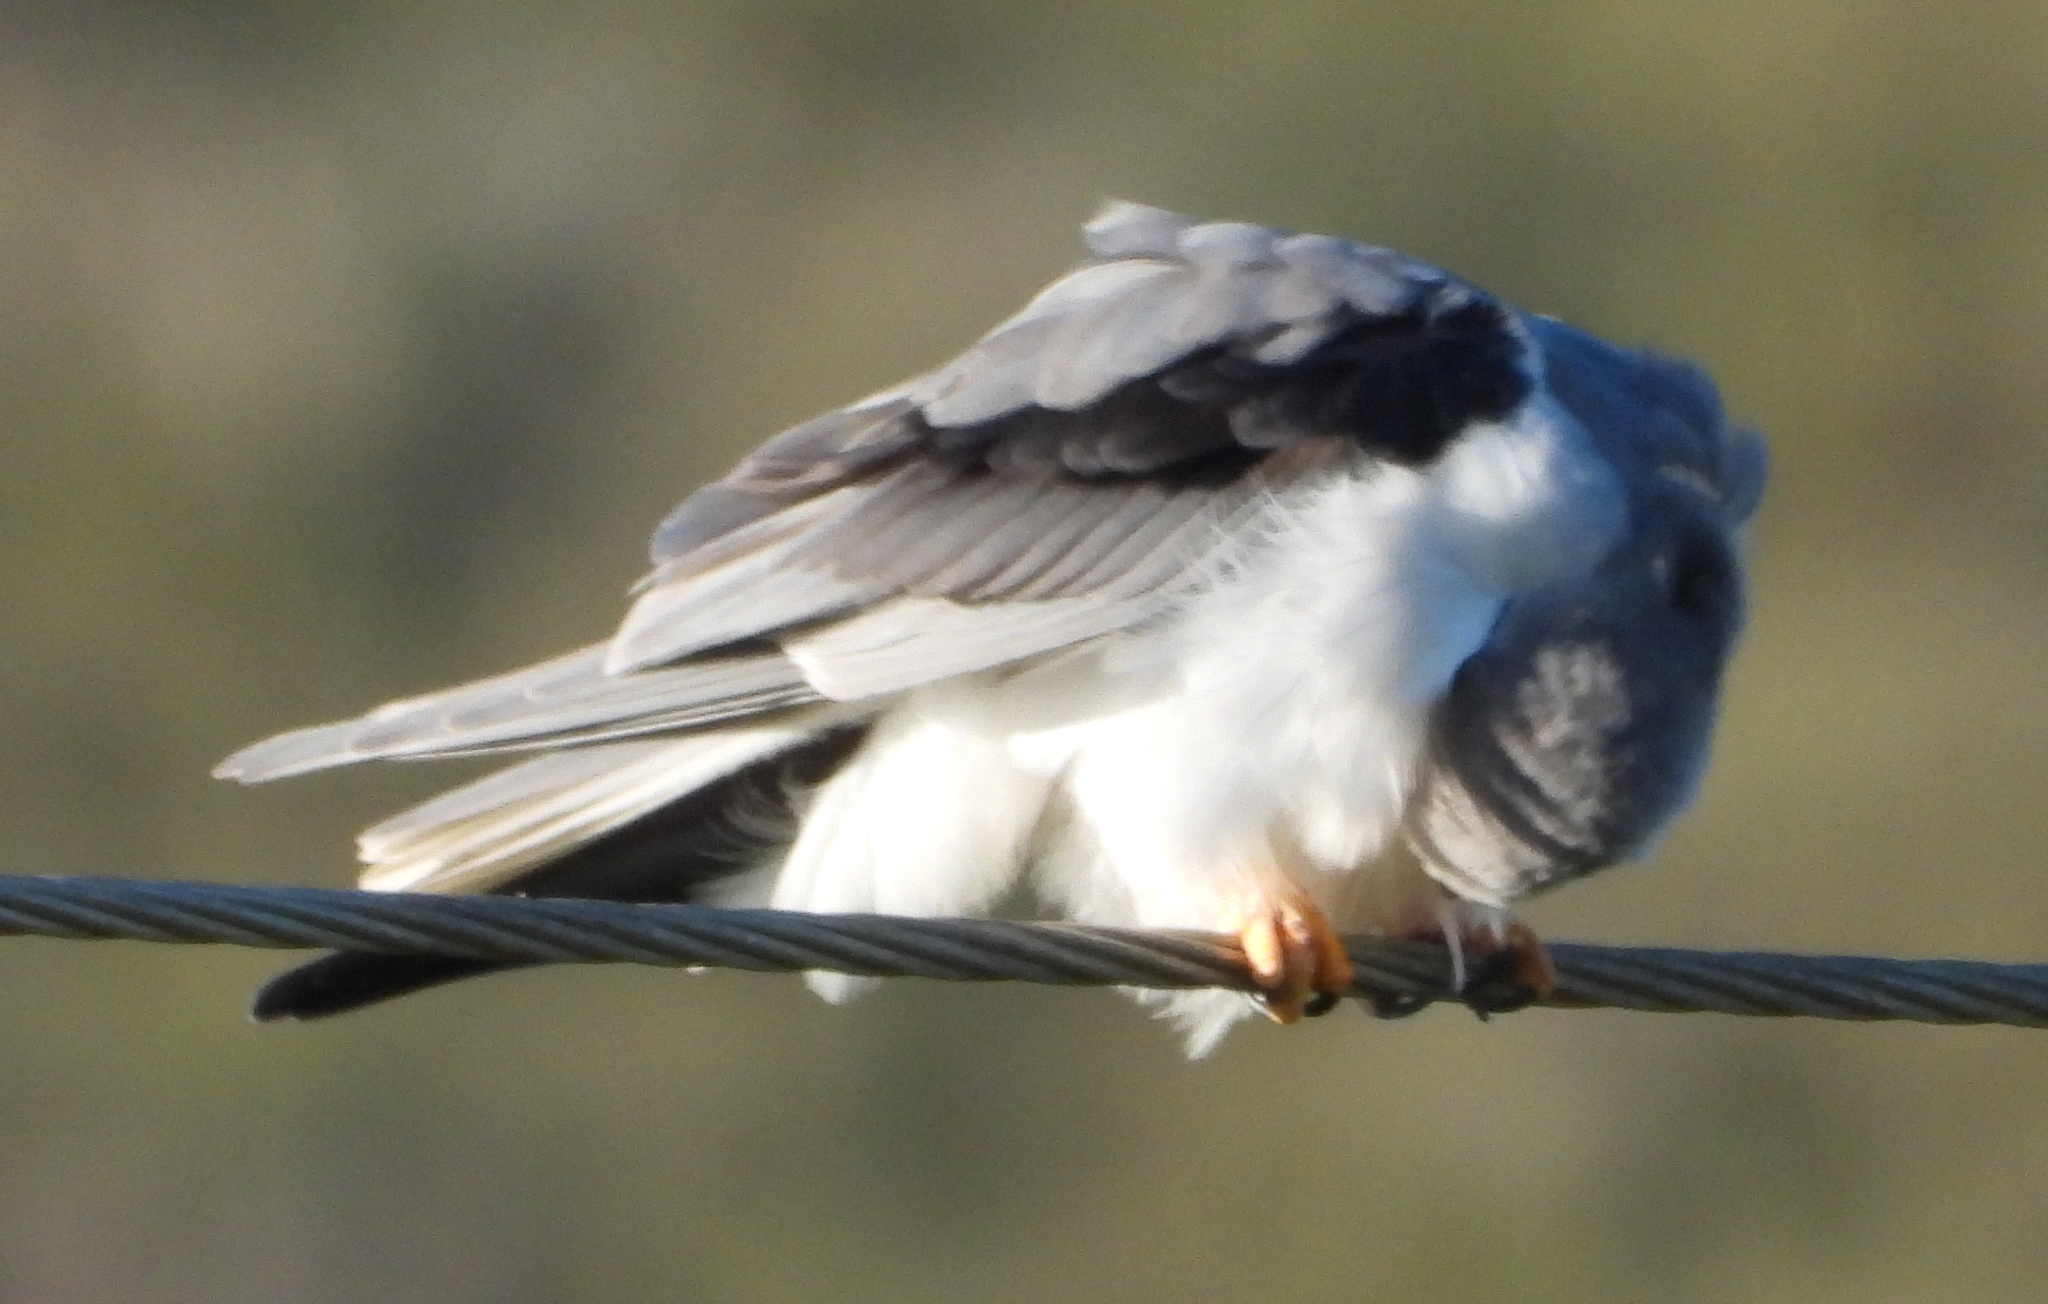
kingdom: Animalia
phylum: Chordata
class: Aves
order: Accipitriformes
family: Accipitridae
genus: Elanus
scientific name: Elanus caeruleus
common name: Black-winged kite
